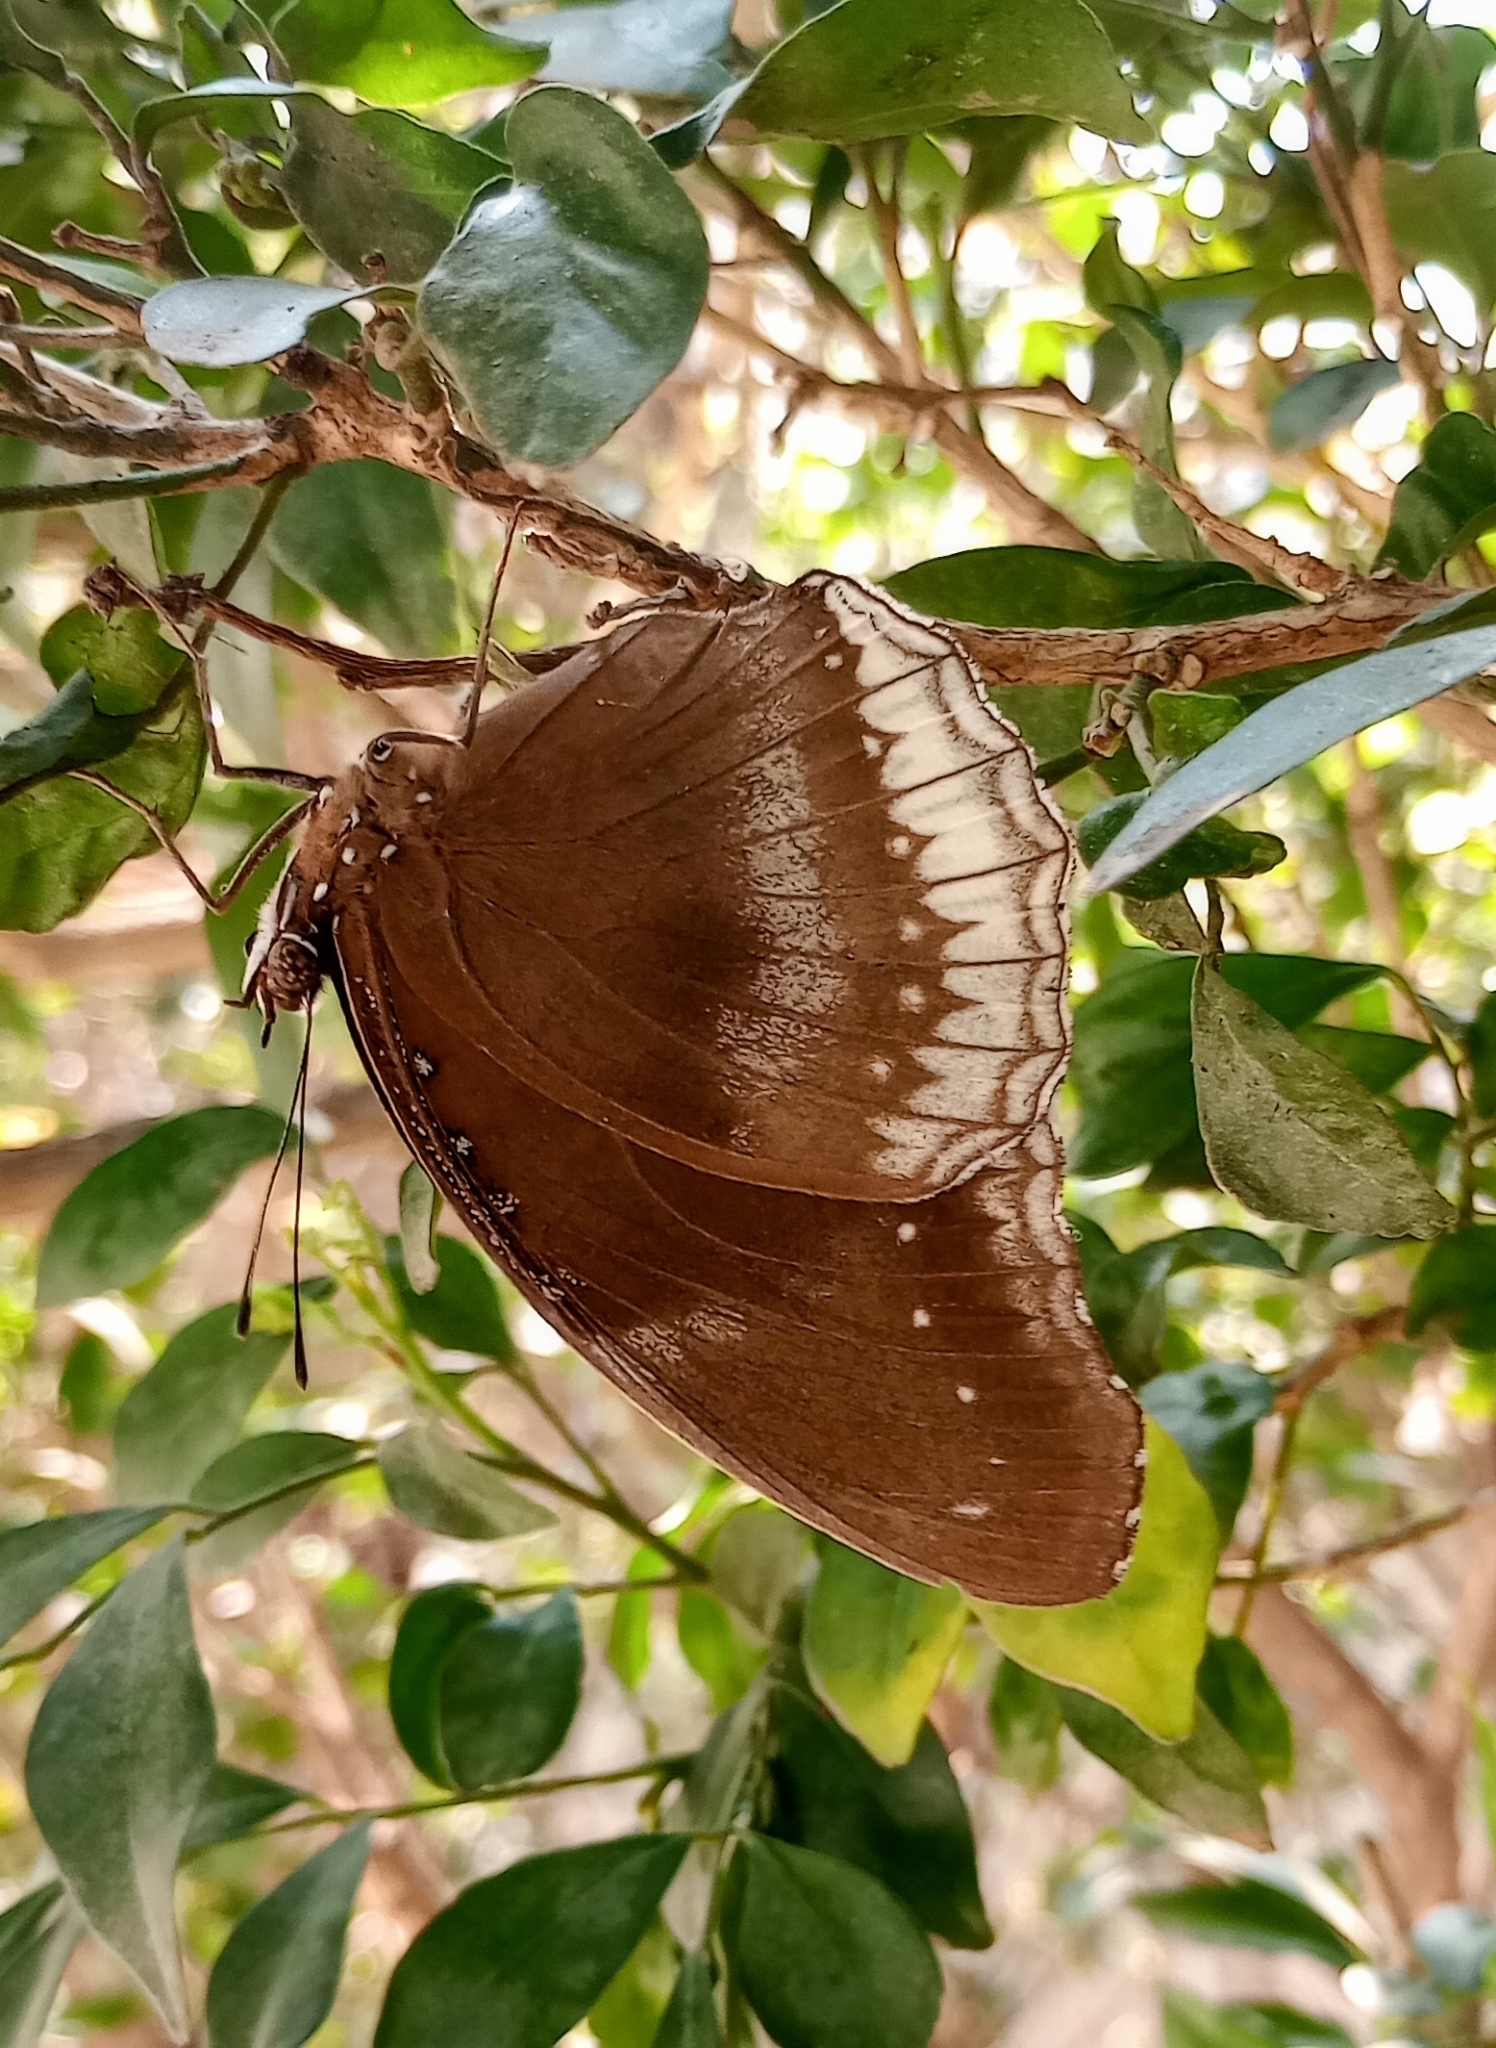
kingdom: Animalia
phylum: Arthropoda
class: Insecta
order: Lepidoptera
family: Nymphalidae
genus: Hypolimnas
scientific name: Hypolimnas bolina
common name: Great eggfly
